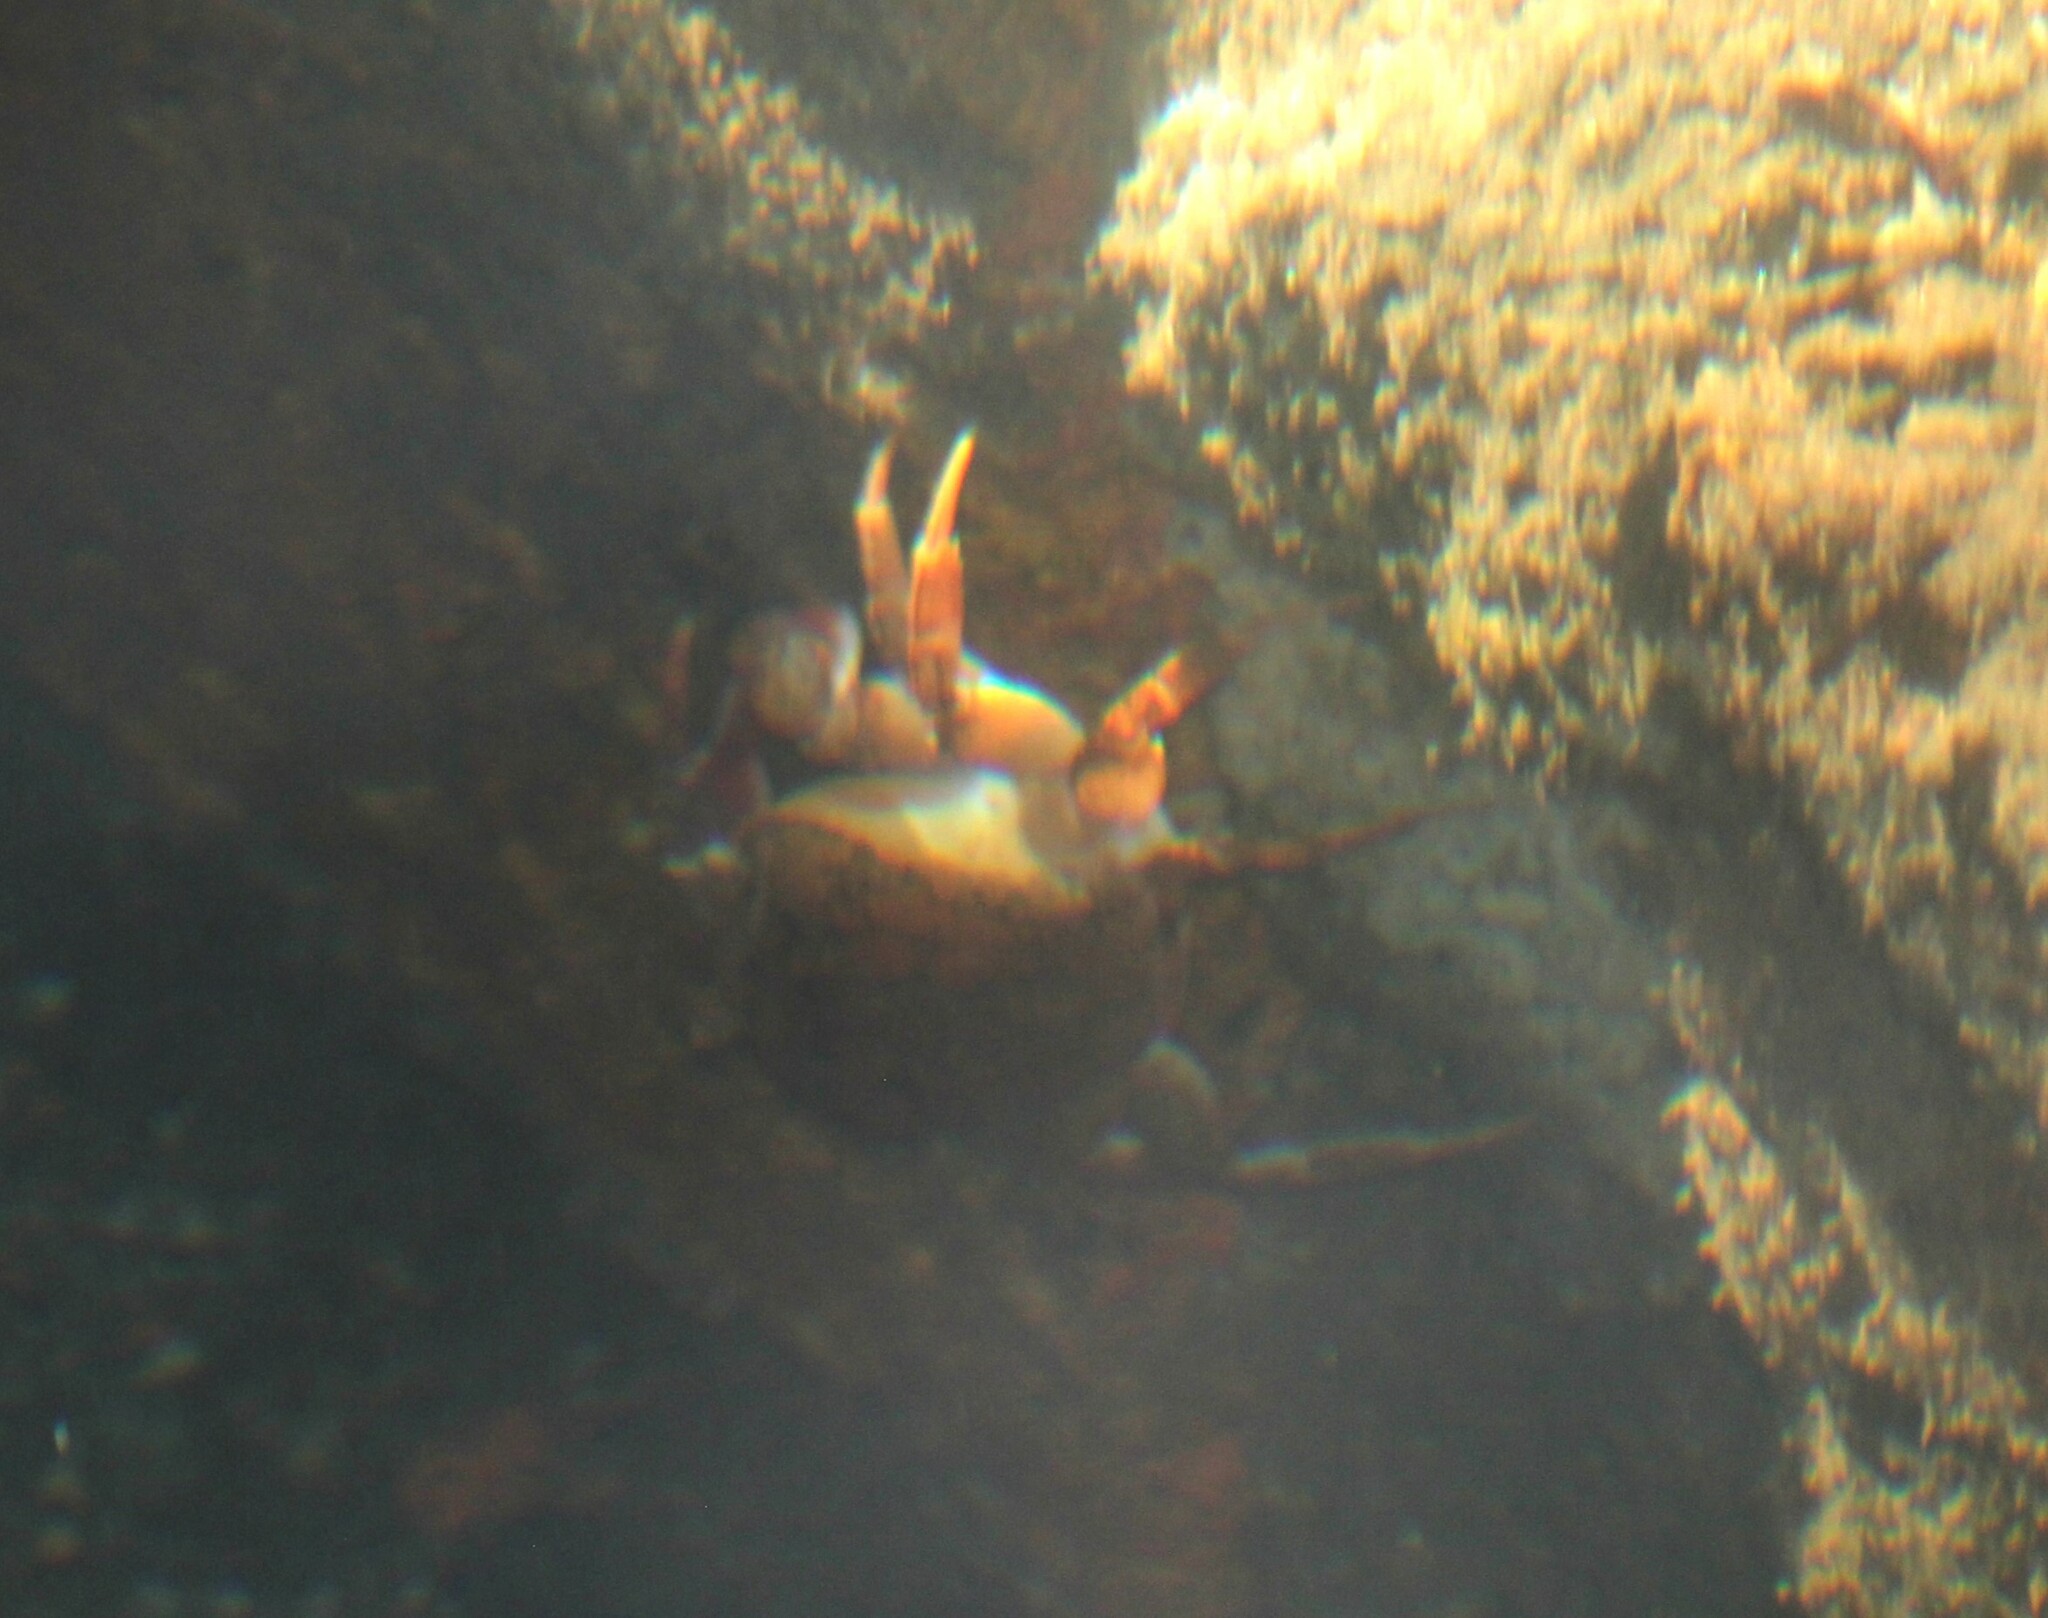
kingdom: Animalia
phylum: Arthropoda
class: Malacostraca
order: Decapoda
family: Gecarcinucidae
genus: Oziotelphusa
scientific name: Oziotelphusa wagrakarowensis
